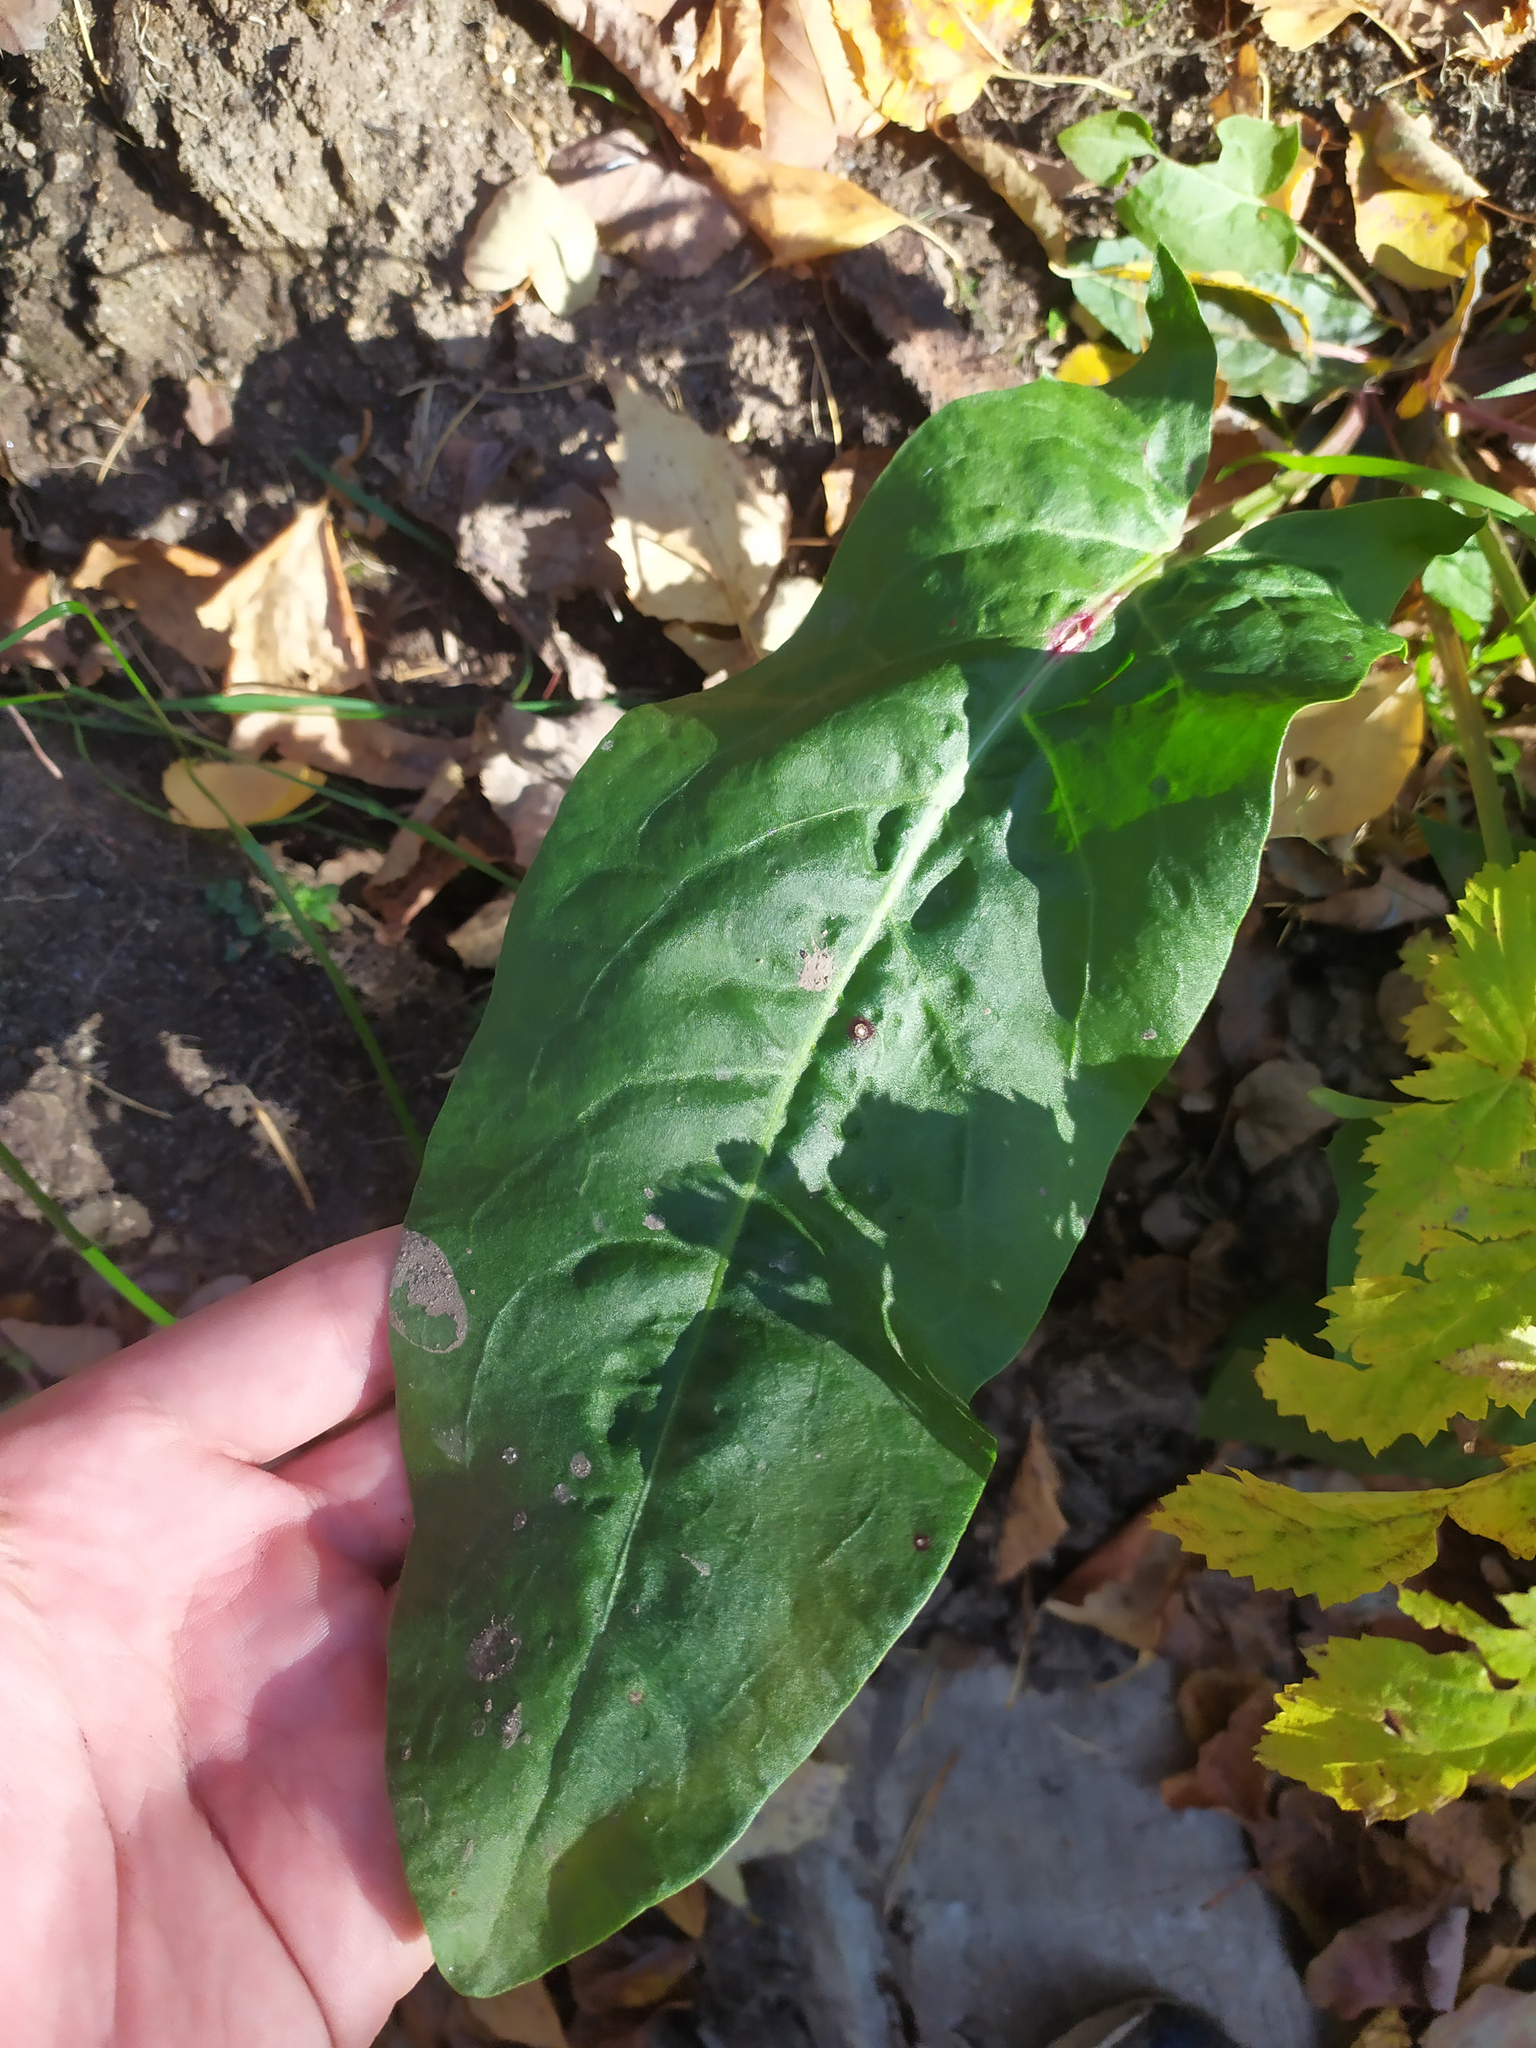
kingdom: Plantae
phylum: Tracheophyta
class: Magnoliopsida
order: Caryophyllales
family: Polygonaceae
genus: Rumex
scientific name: Rumex
